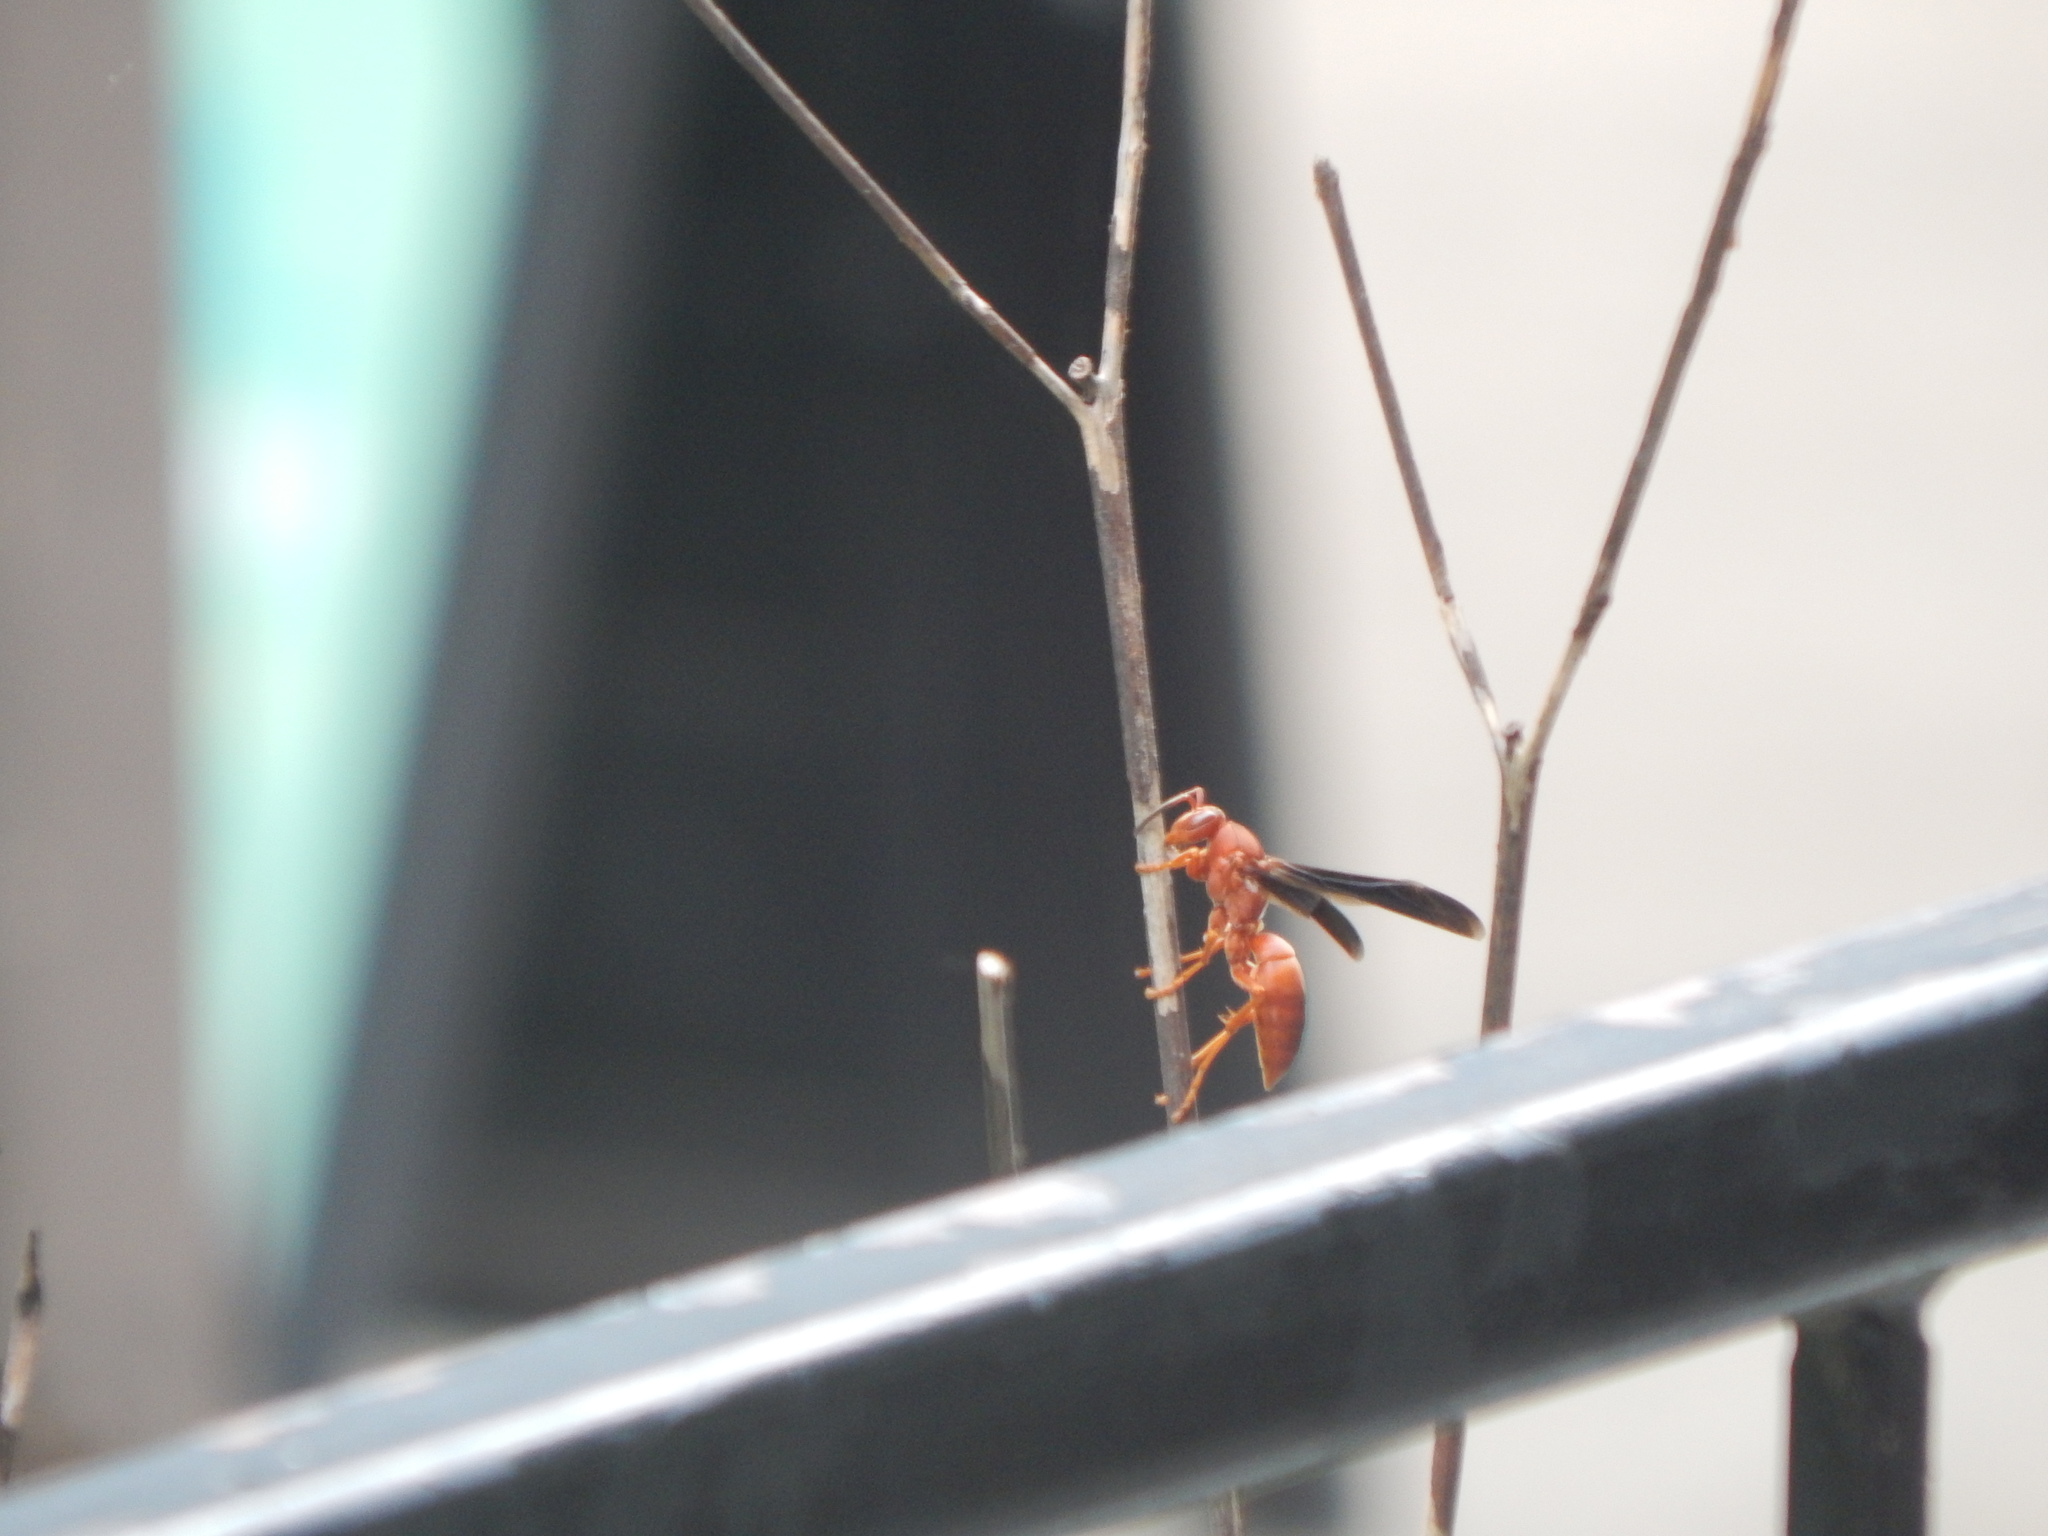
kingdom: Animalia
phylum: Arthropoda
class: Insecta
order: Hymenoptera
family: Eumenidae
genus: Polistes
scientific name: Polistes carolina
